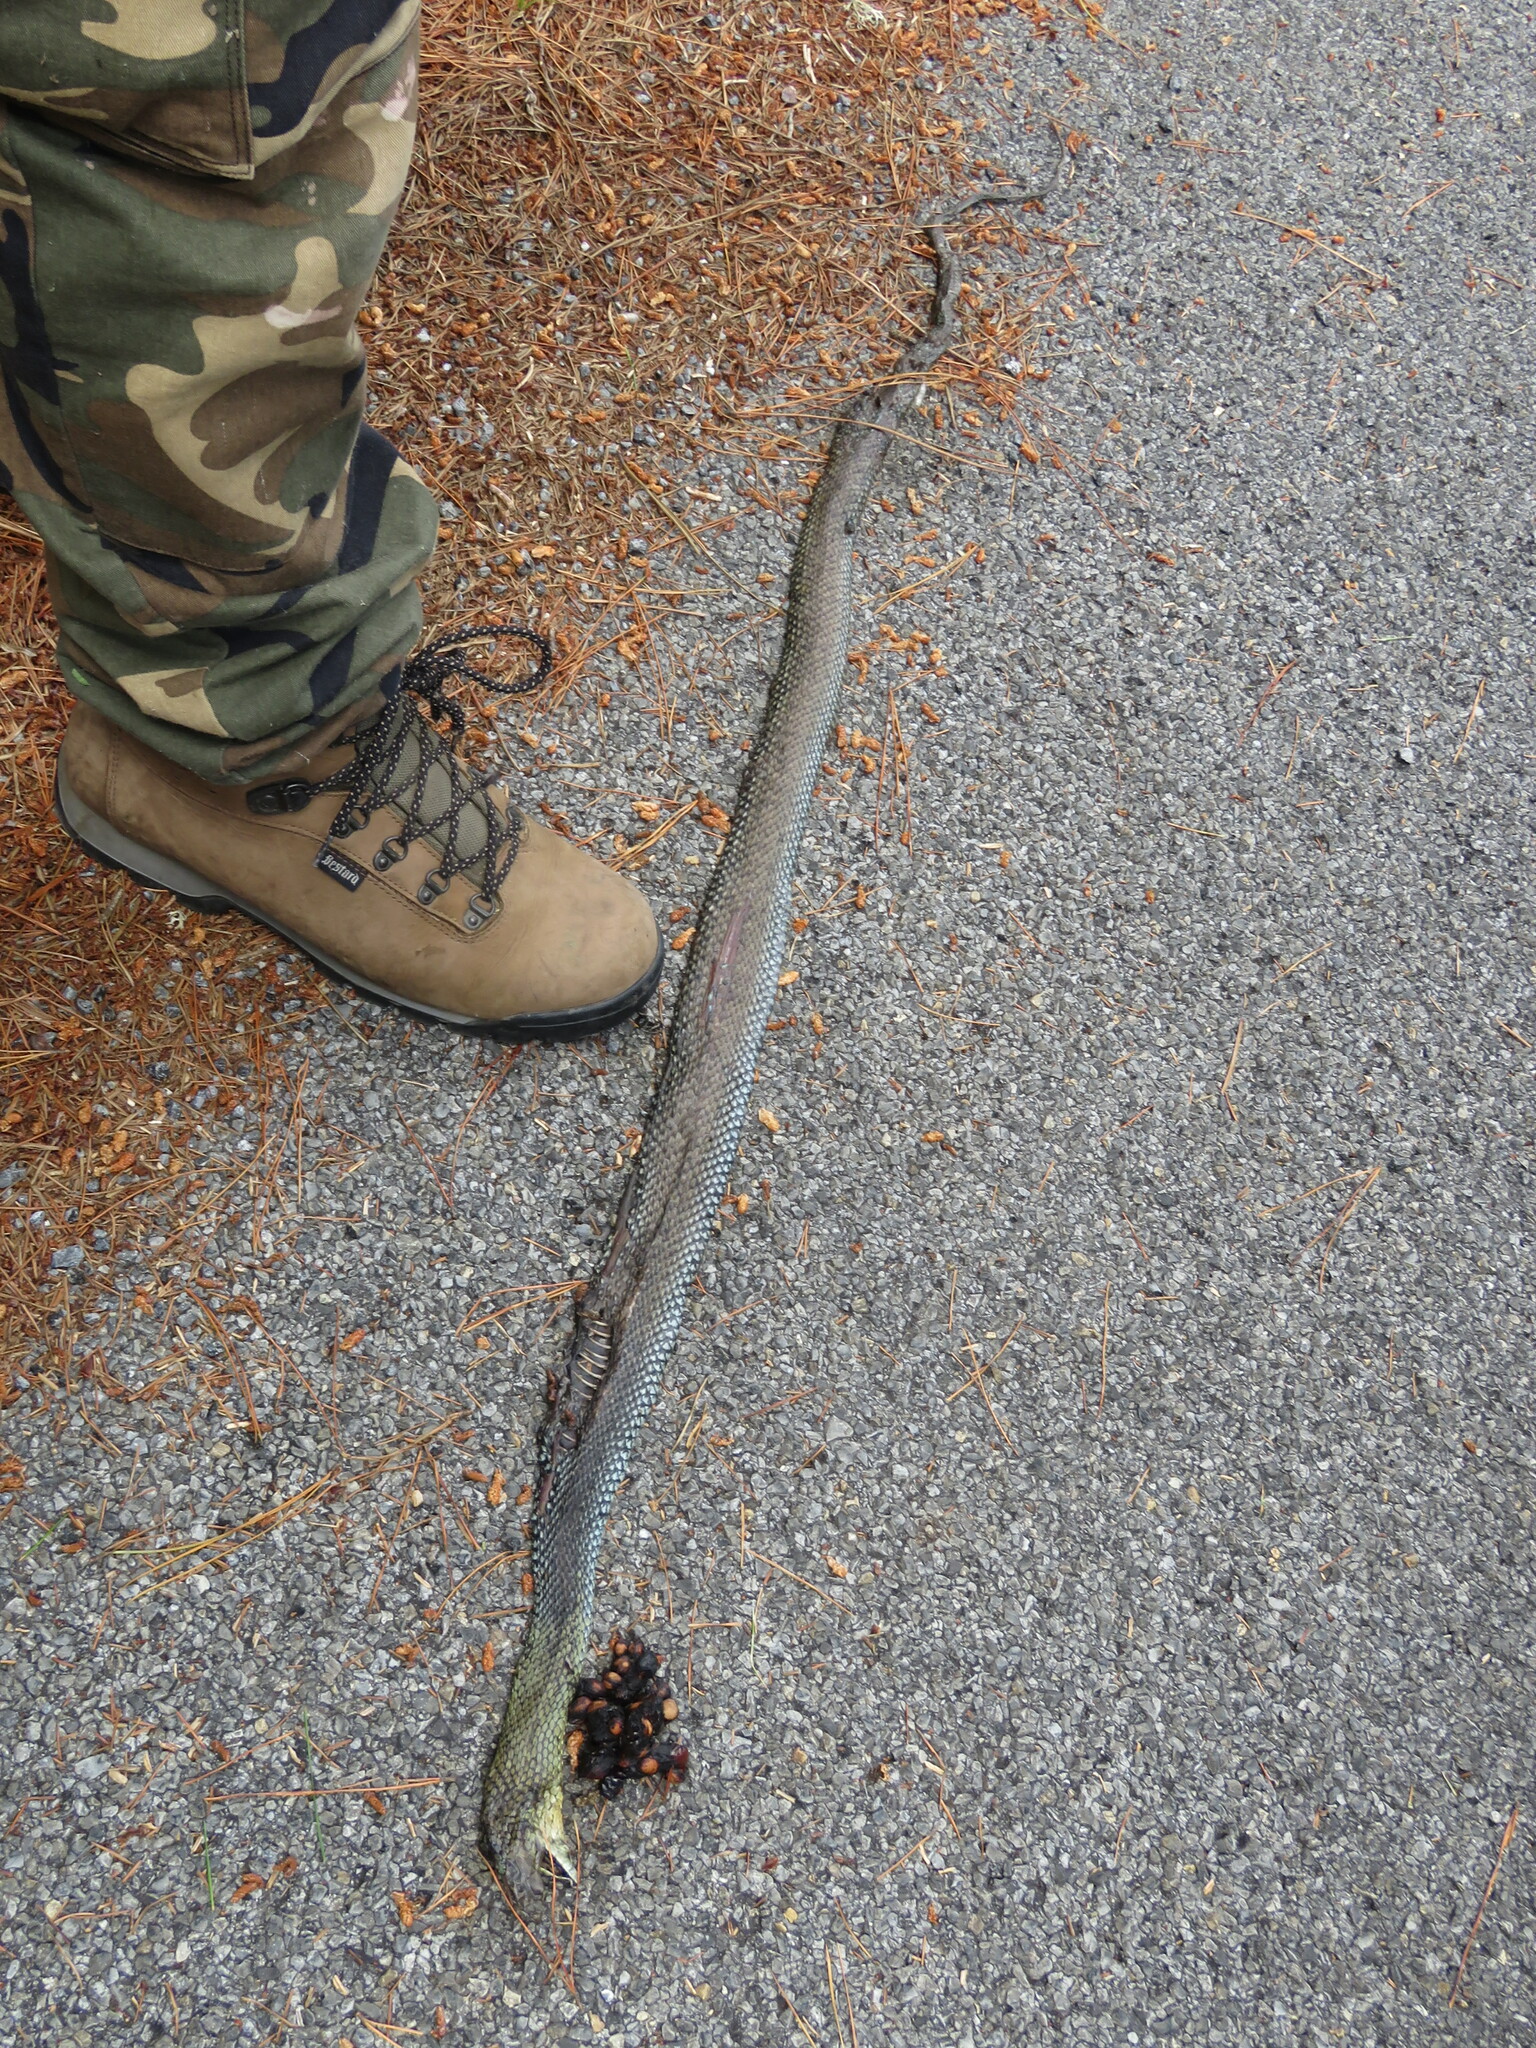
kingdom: Animalia
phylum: Chordata
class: Squamata
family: Psammophiidae
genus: Malpolon
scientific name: Malpolon monspessulanus
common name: Montpellier snake
